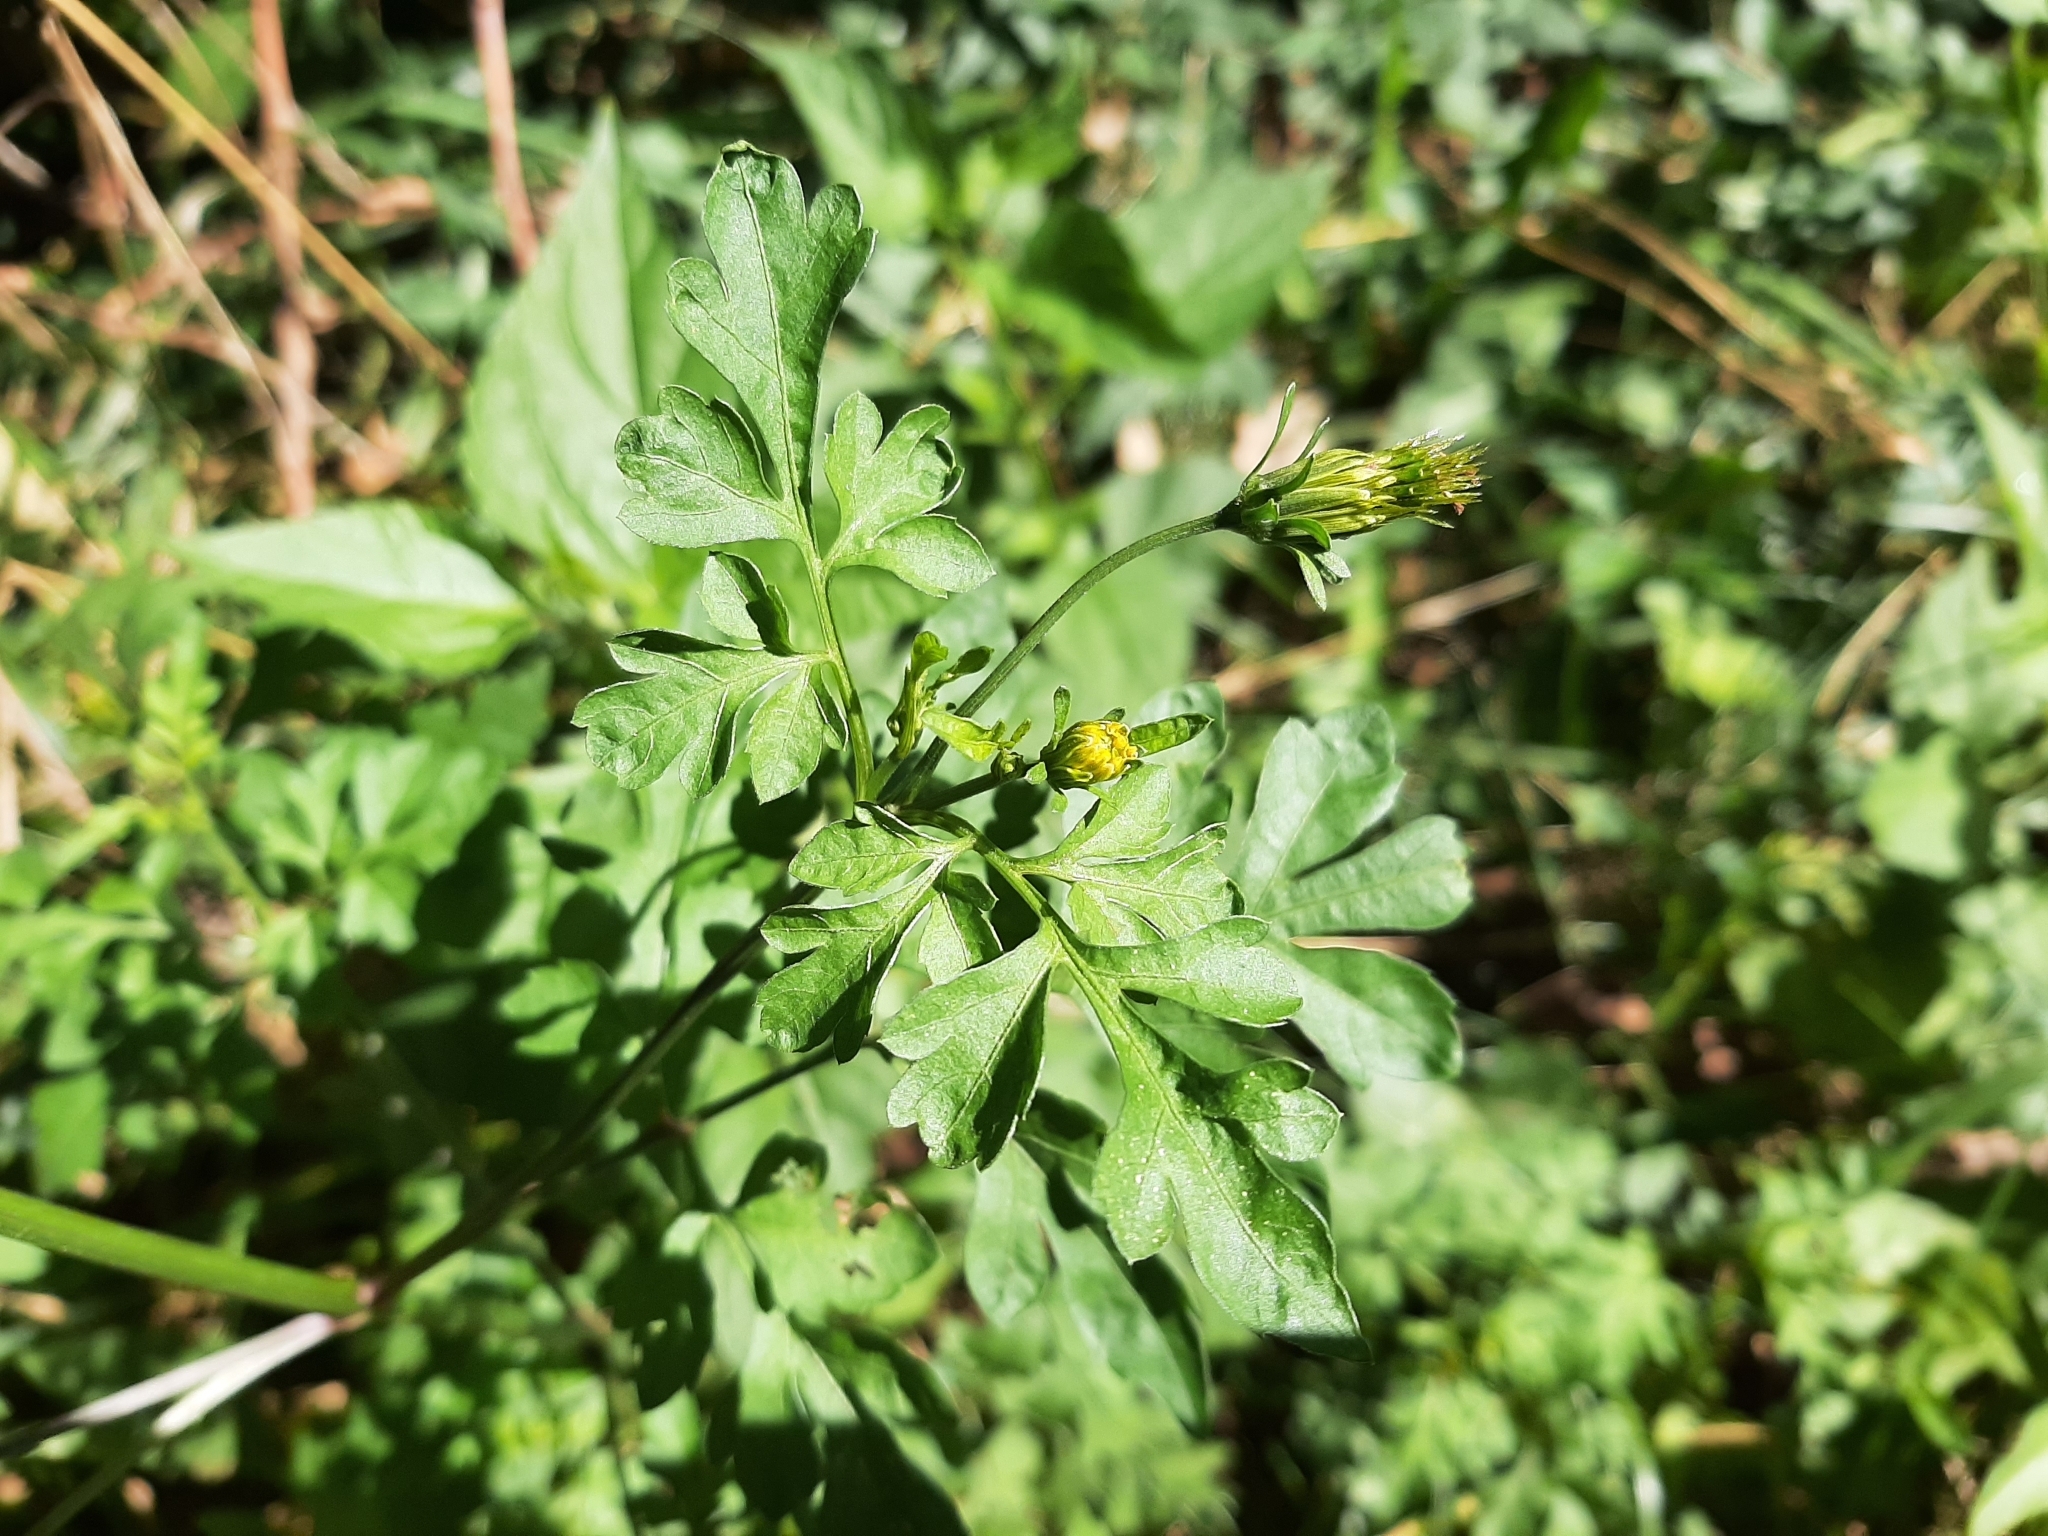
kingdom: Plantae
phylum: Tracheophyta
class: Magnoliopsida
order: Asterales
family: Asteraceae
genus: Bidens
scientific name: Bidens bipinnata
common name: Spanish-needles
